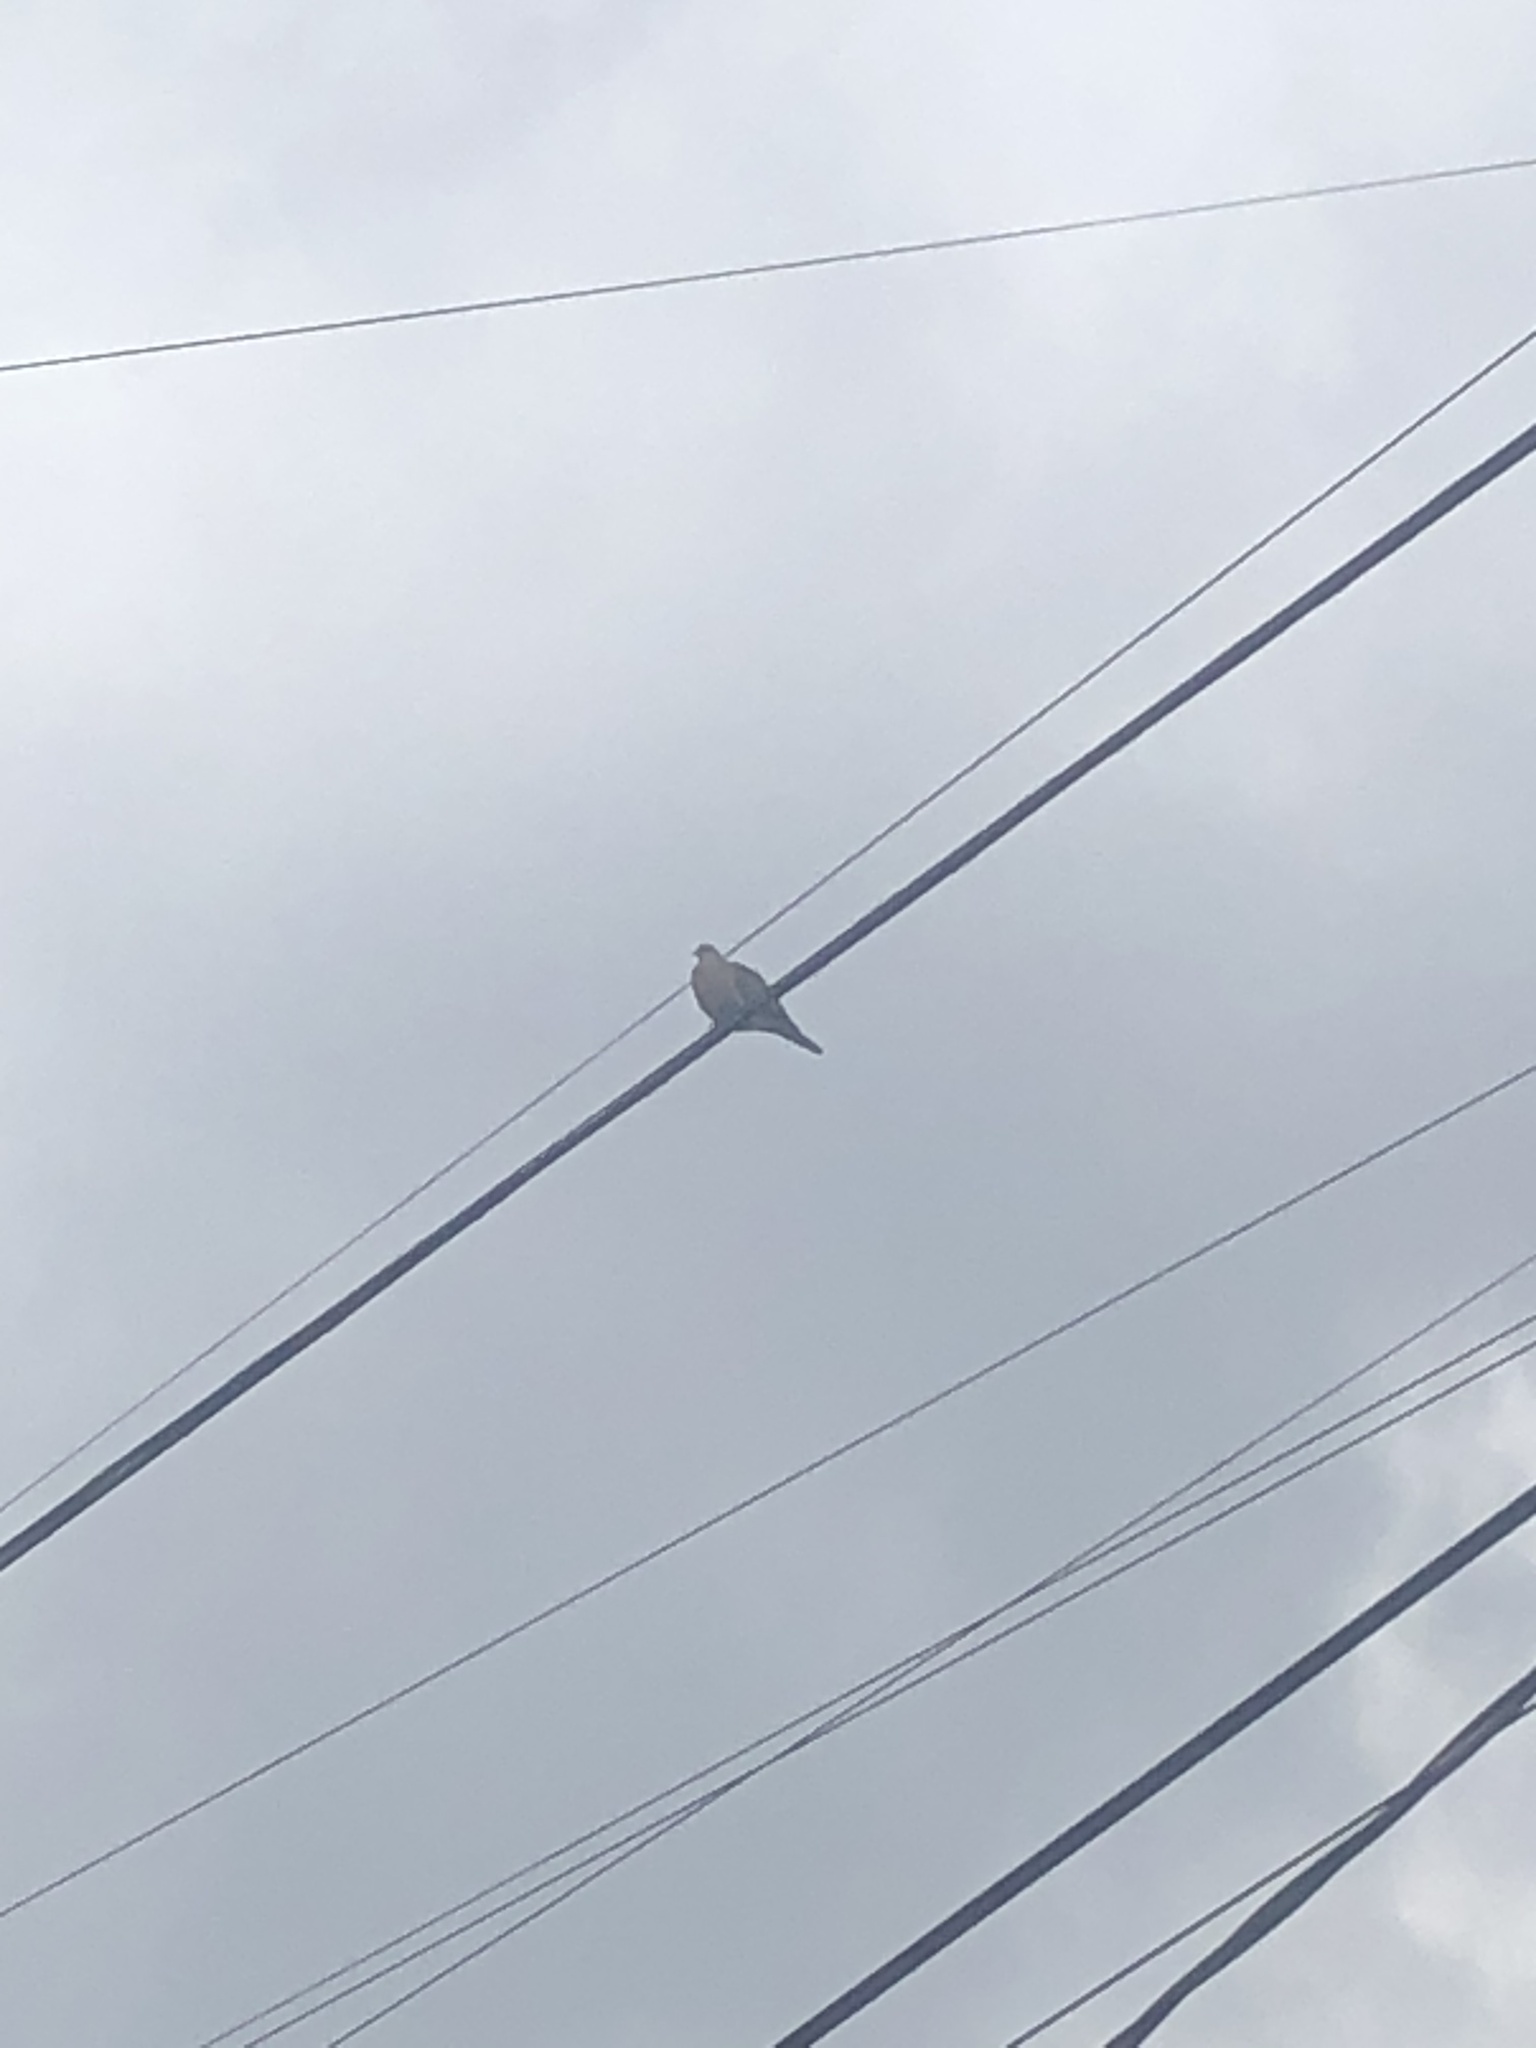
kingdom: Animalia
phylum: Chordata
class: Aves
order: Columbiformes
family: Columbidae
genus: Zenaida
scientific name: Zenaida auriculata
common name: Eared dove
